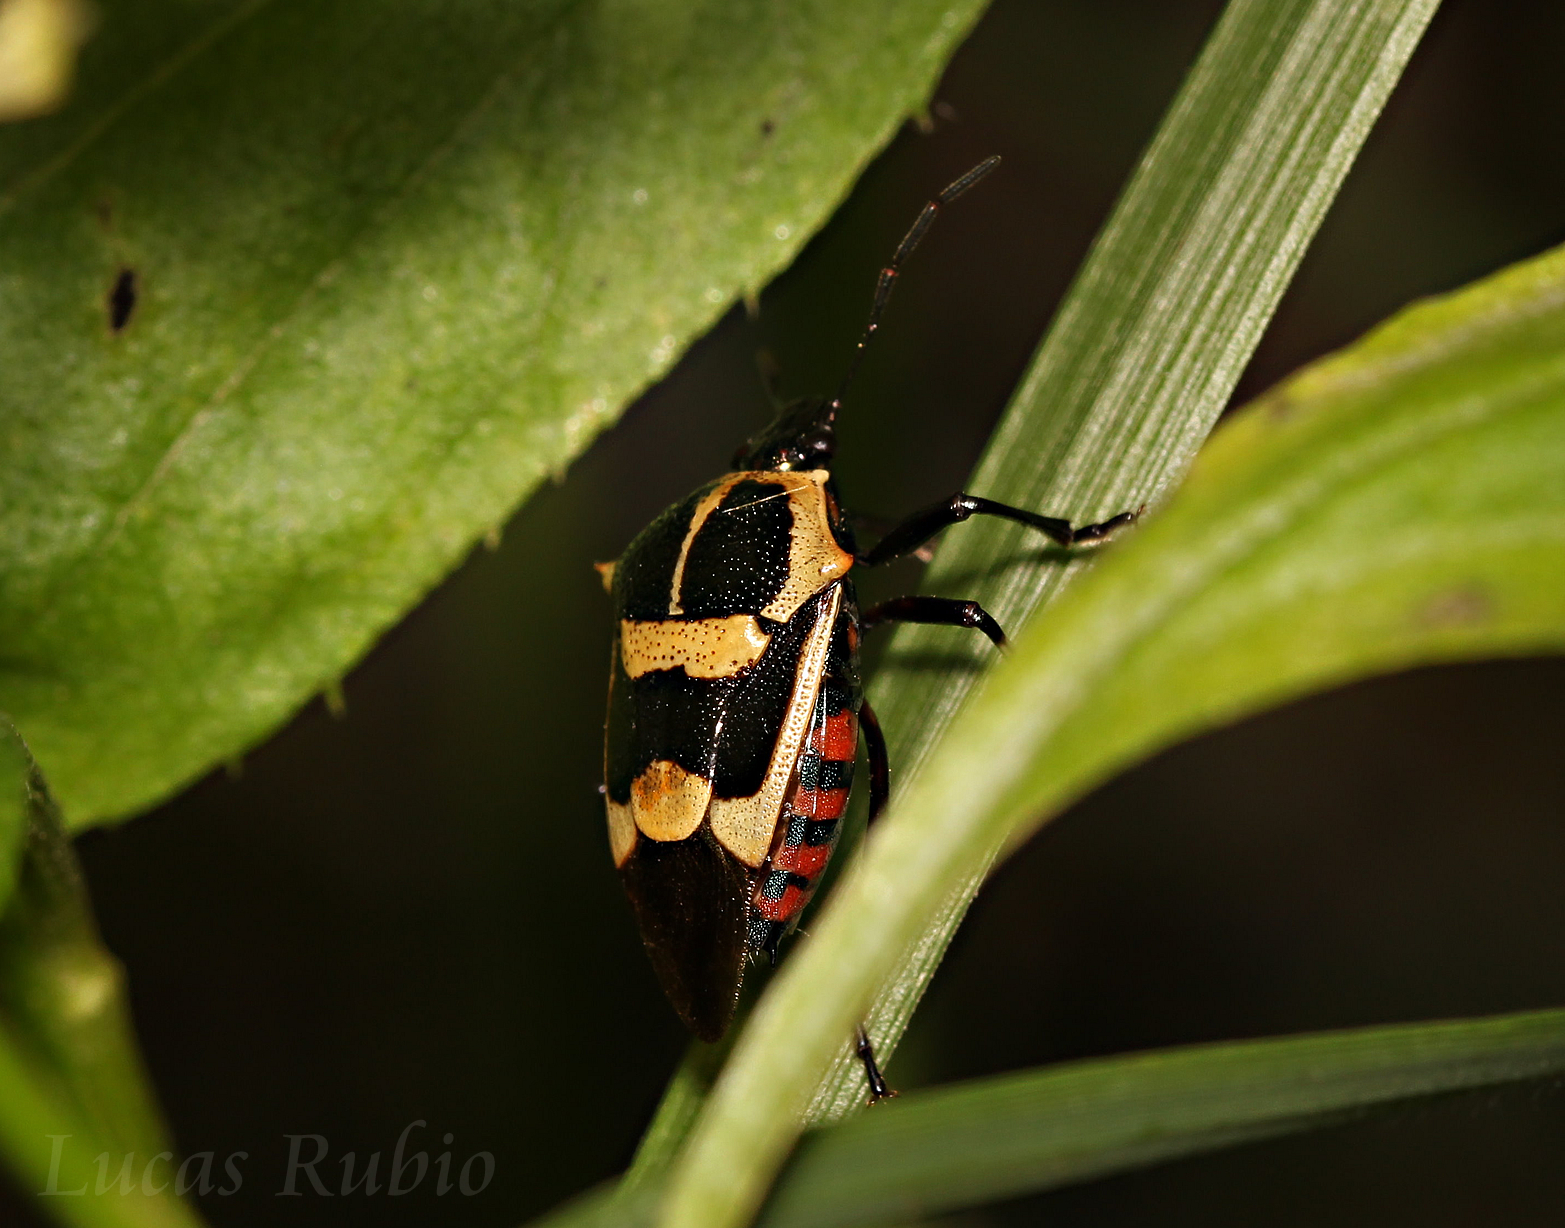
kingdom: Animalia
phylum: Arthropoda
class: Insecta
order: Hemiptera
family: Pentatomidae
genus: Oplomus
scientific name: Oplomus cruentus
